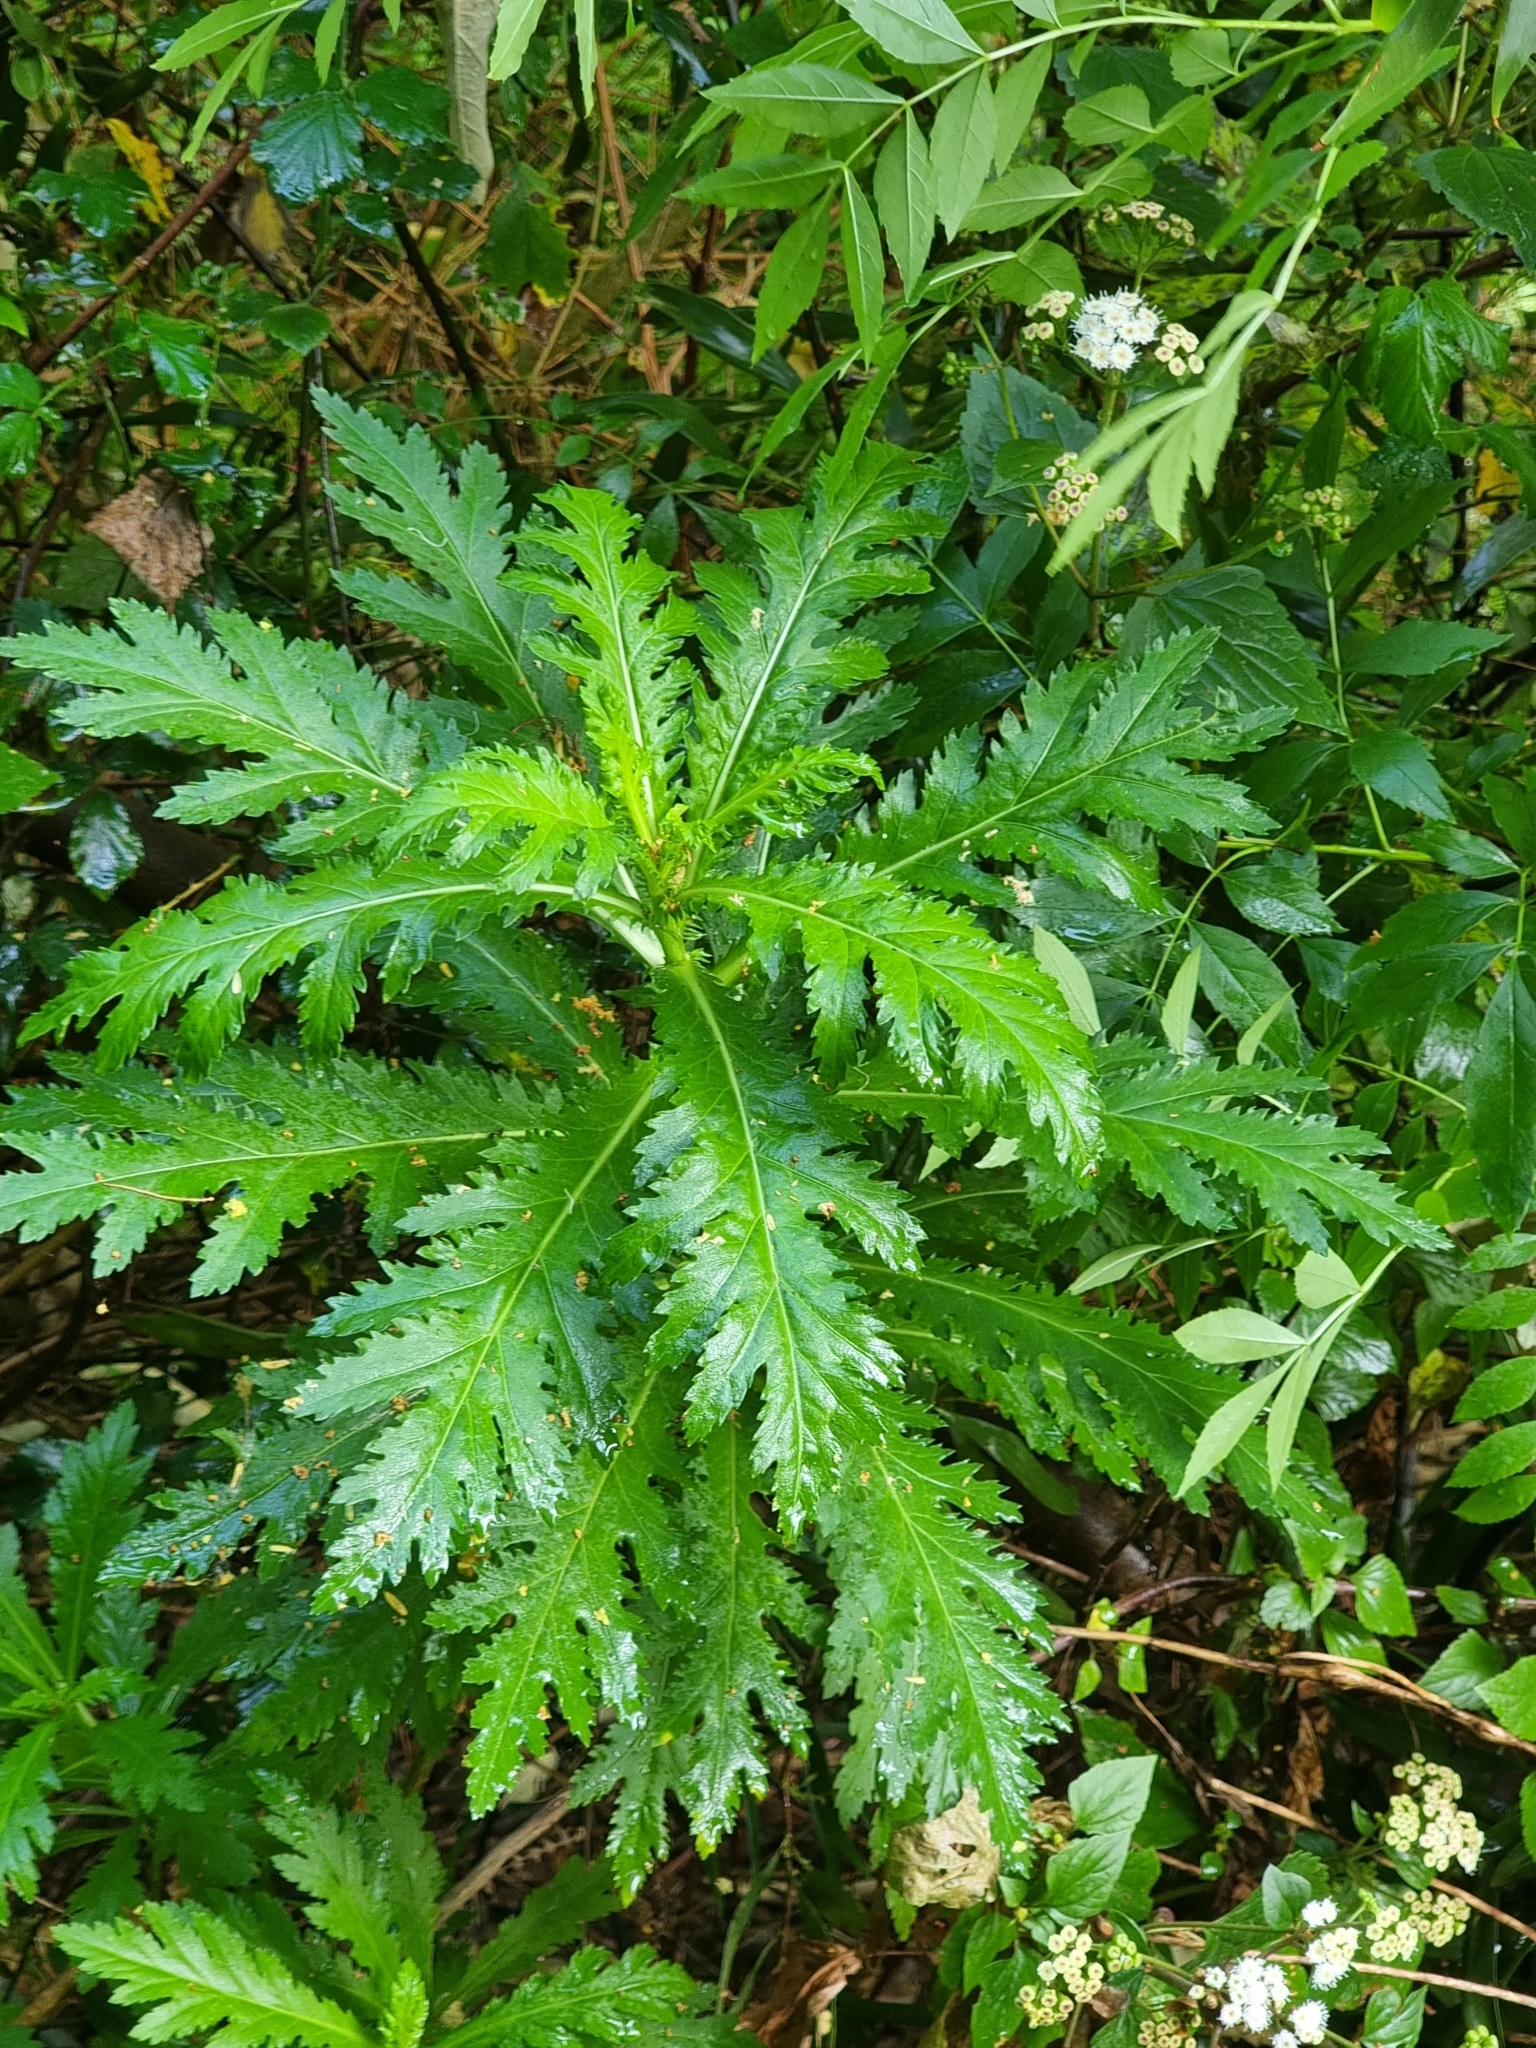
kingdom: Plantae
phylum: Tracheophyta
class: Magnoliopsida
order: Asterales
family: Asteraceae
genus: Argyranthemum
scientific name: Argyranthemum pinnatifidum
